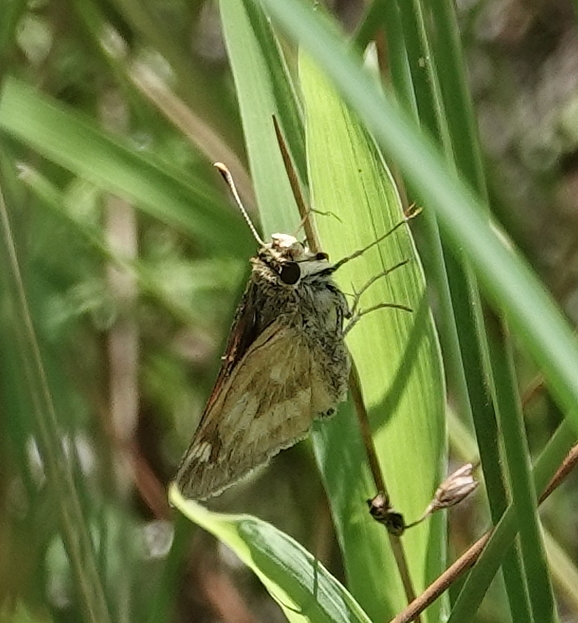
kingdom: Animalia
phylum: Arthropoda
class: Insecta
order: Lepidoptera
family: Hesperiidae
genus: Polites
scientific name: Polites mystic
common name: Long dash
